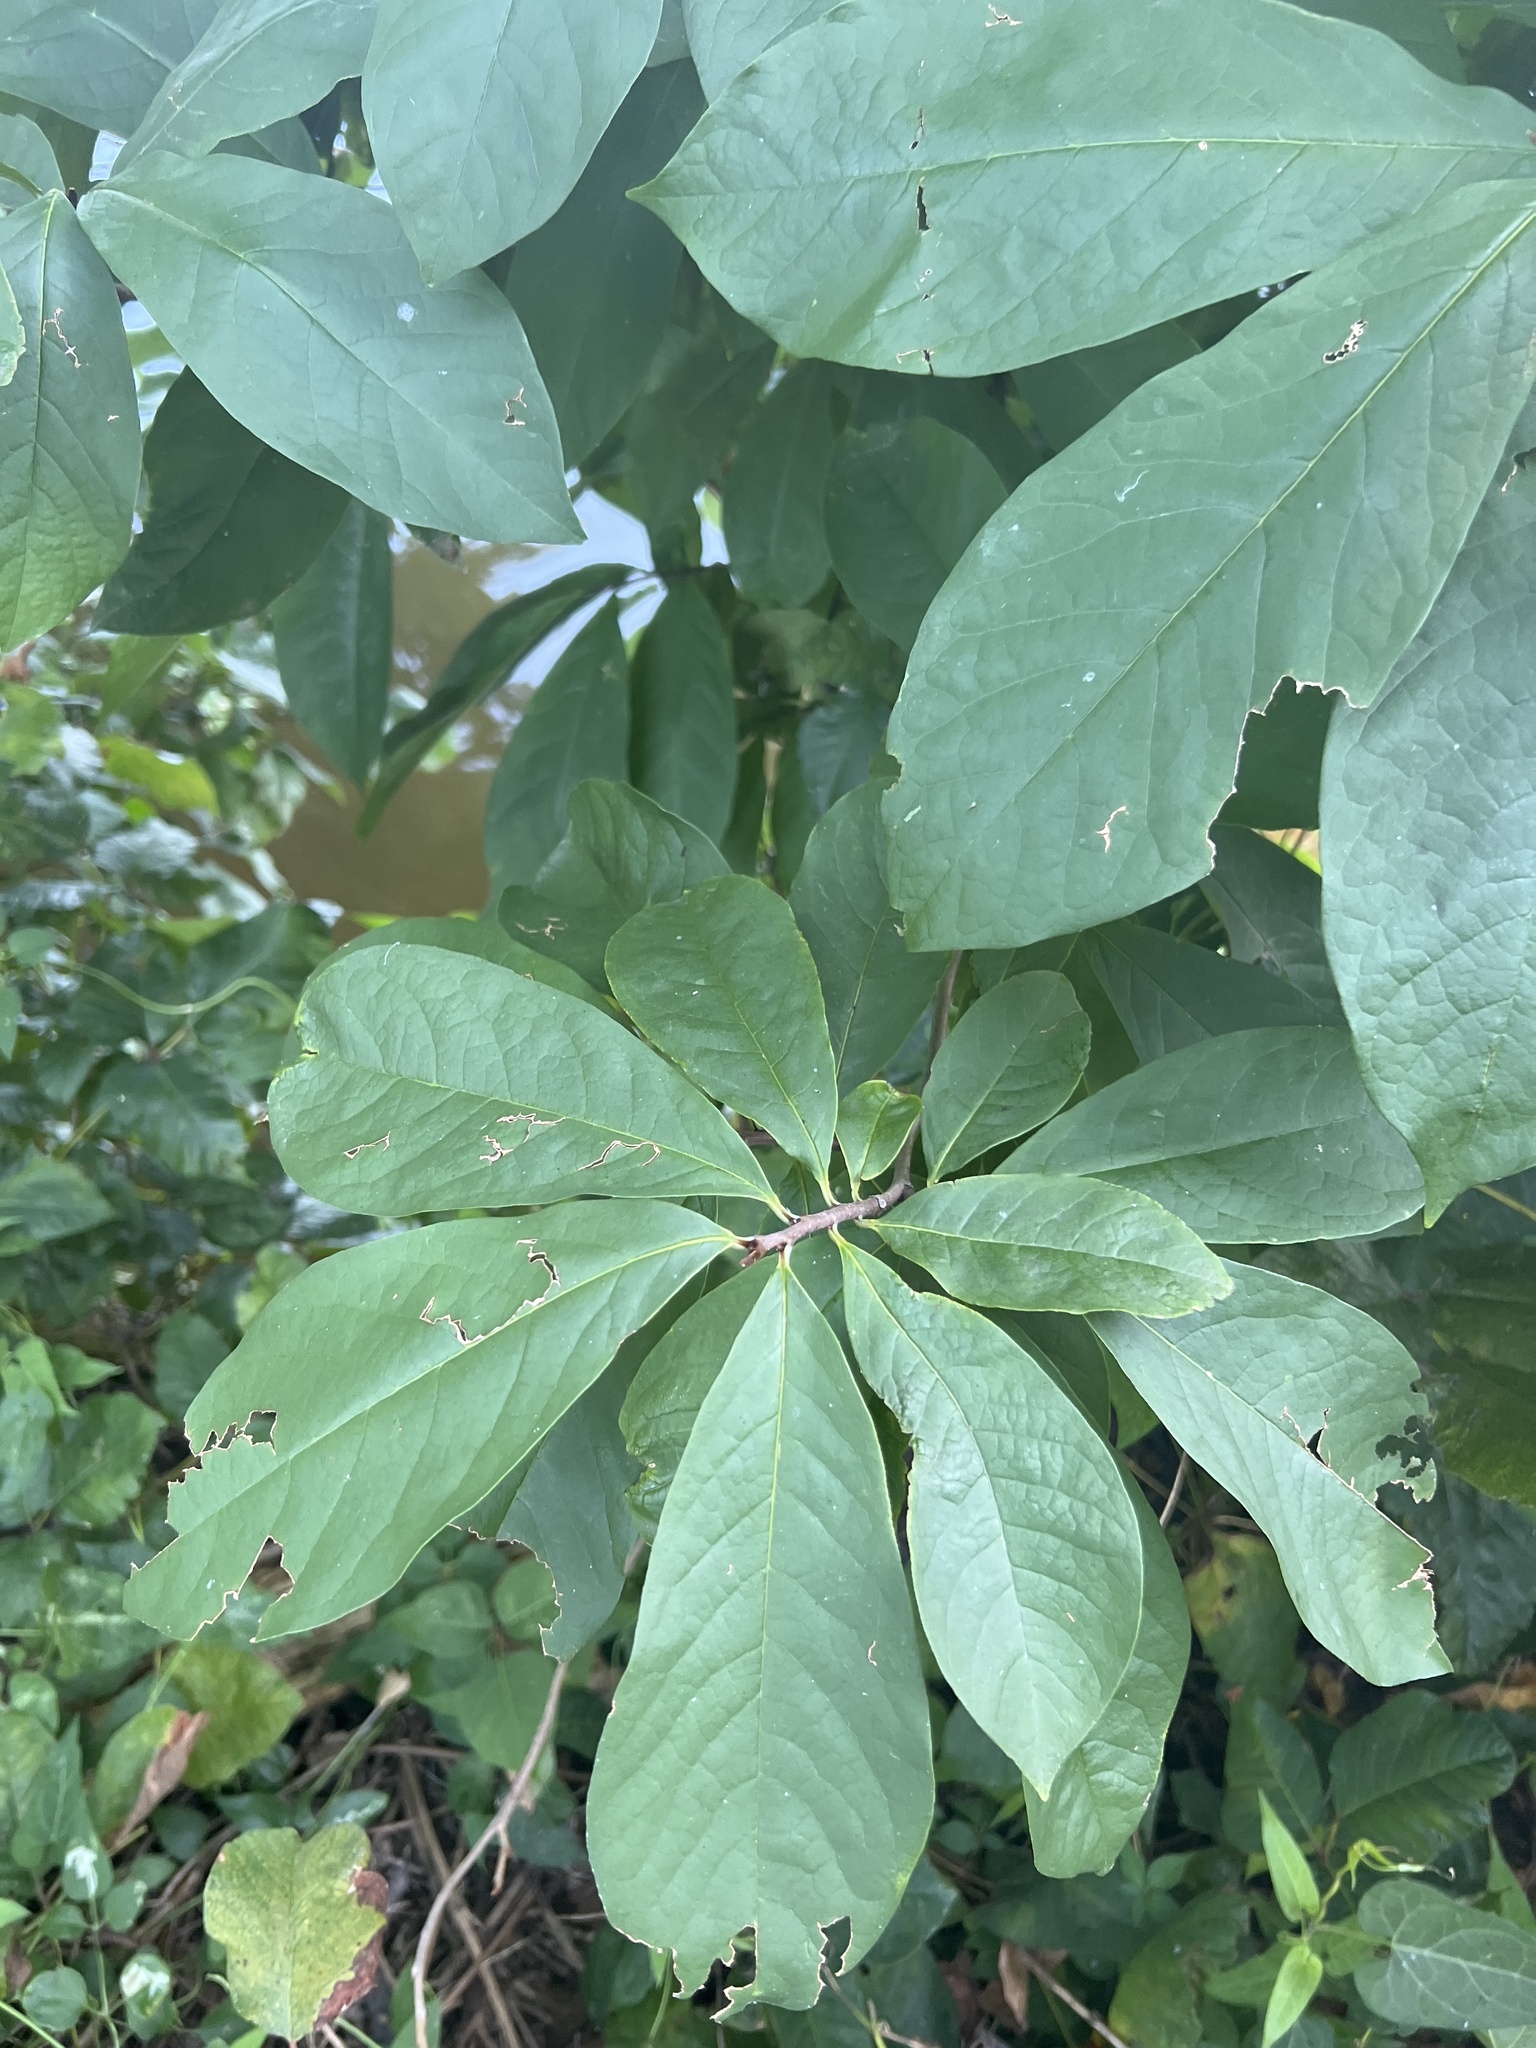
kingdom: Plantae
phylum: Tracheophyta
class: Magnoliopsida
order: Magnoliales
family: Annonaceae
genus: Asimina
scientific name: Asimina triloba
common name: Dog-banana
